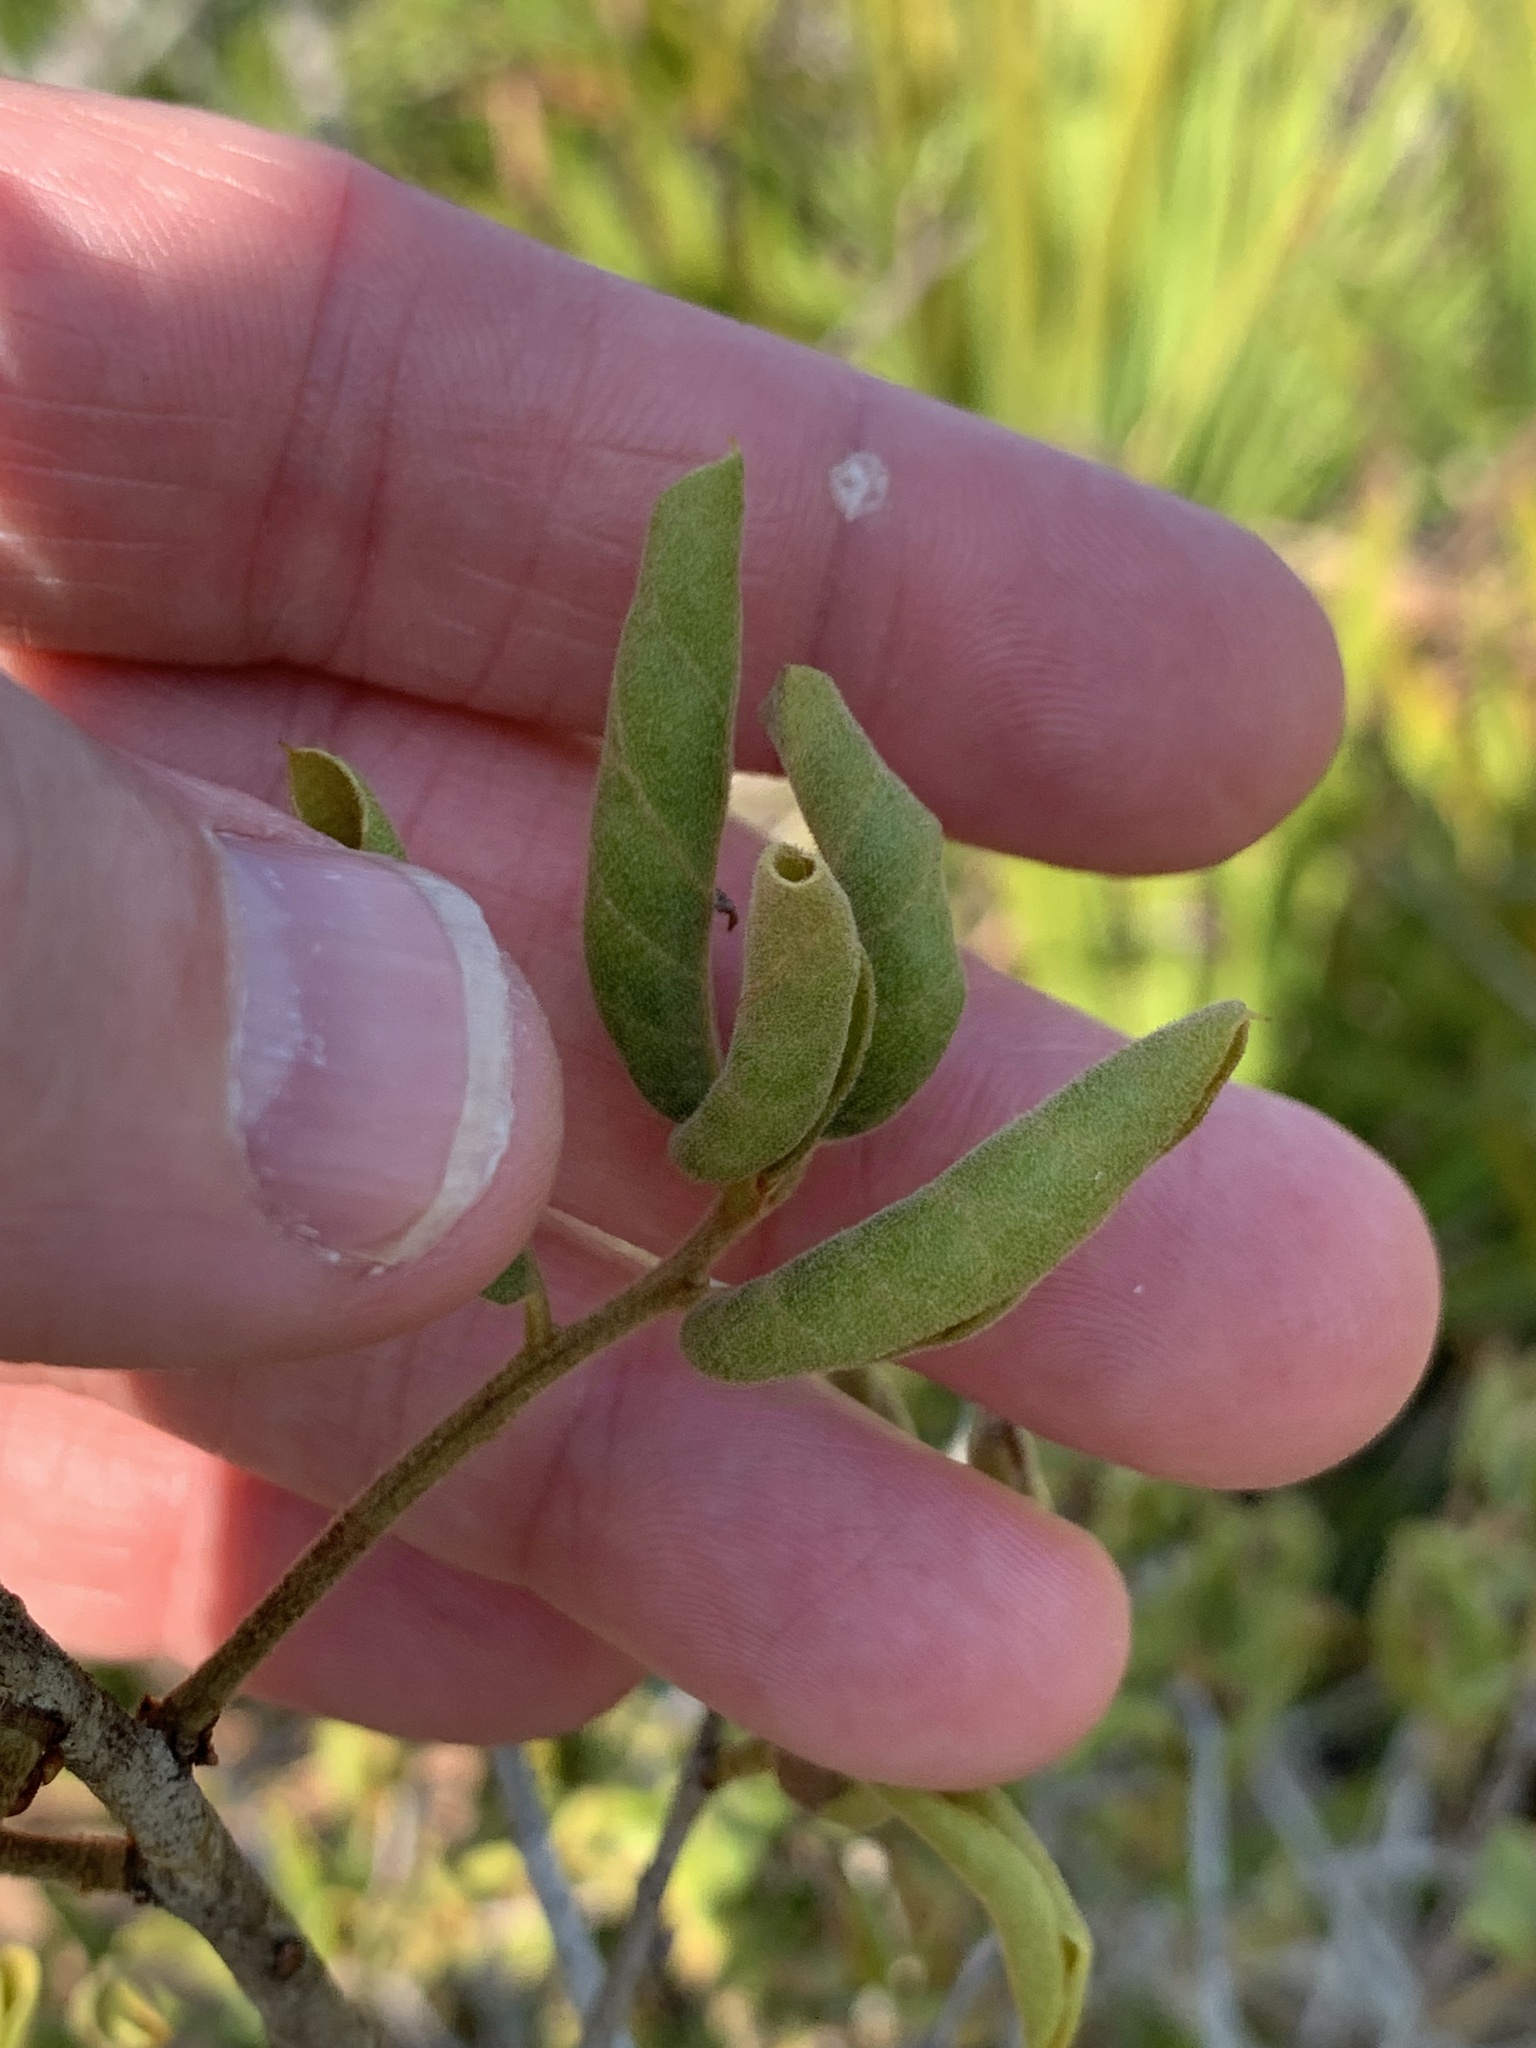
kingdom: Plantae
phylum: Tracheophyta
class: Magnoliopsida
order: Fagales
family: Fagaceae
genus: Quercus
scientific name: Quercus inopina
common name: Sandhill oak
